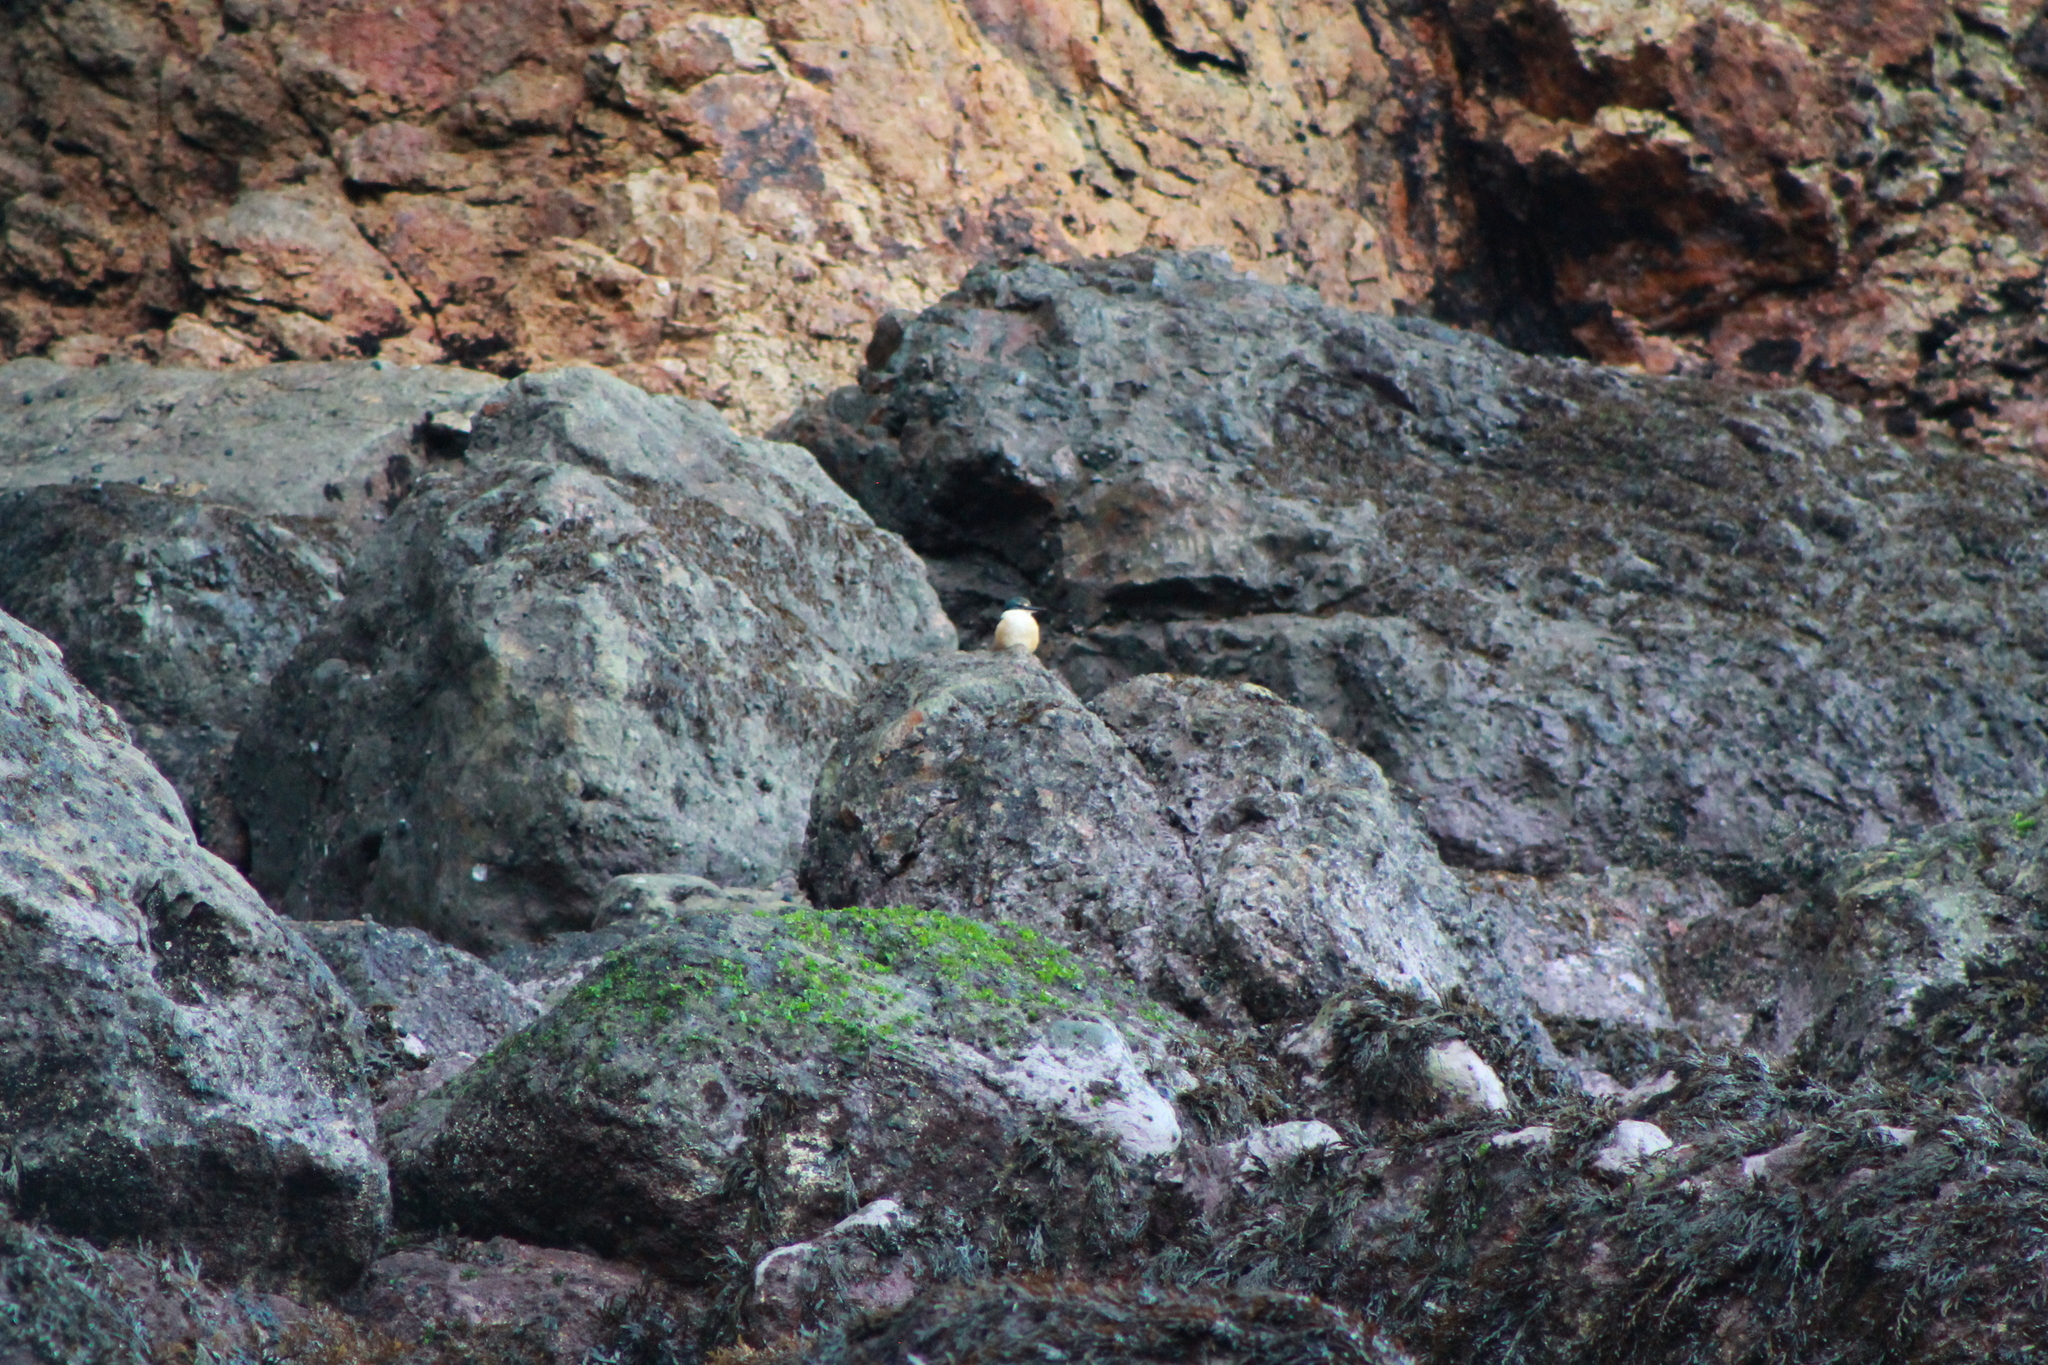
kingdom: Animalia
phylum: Chordata
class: Aves
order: Coraciiformes
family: Alcedinidae
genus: Todiramphus
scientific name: Todiramphus sanctus
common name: Sacred kingfisher
